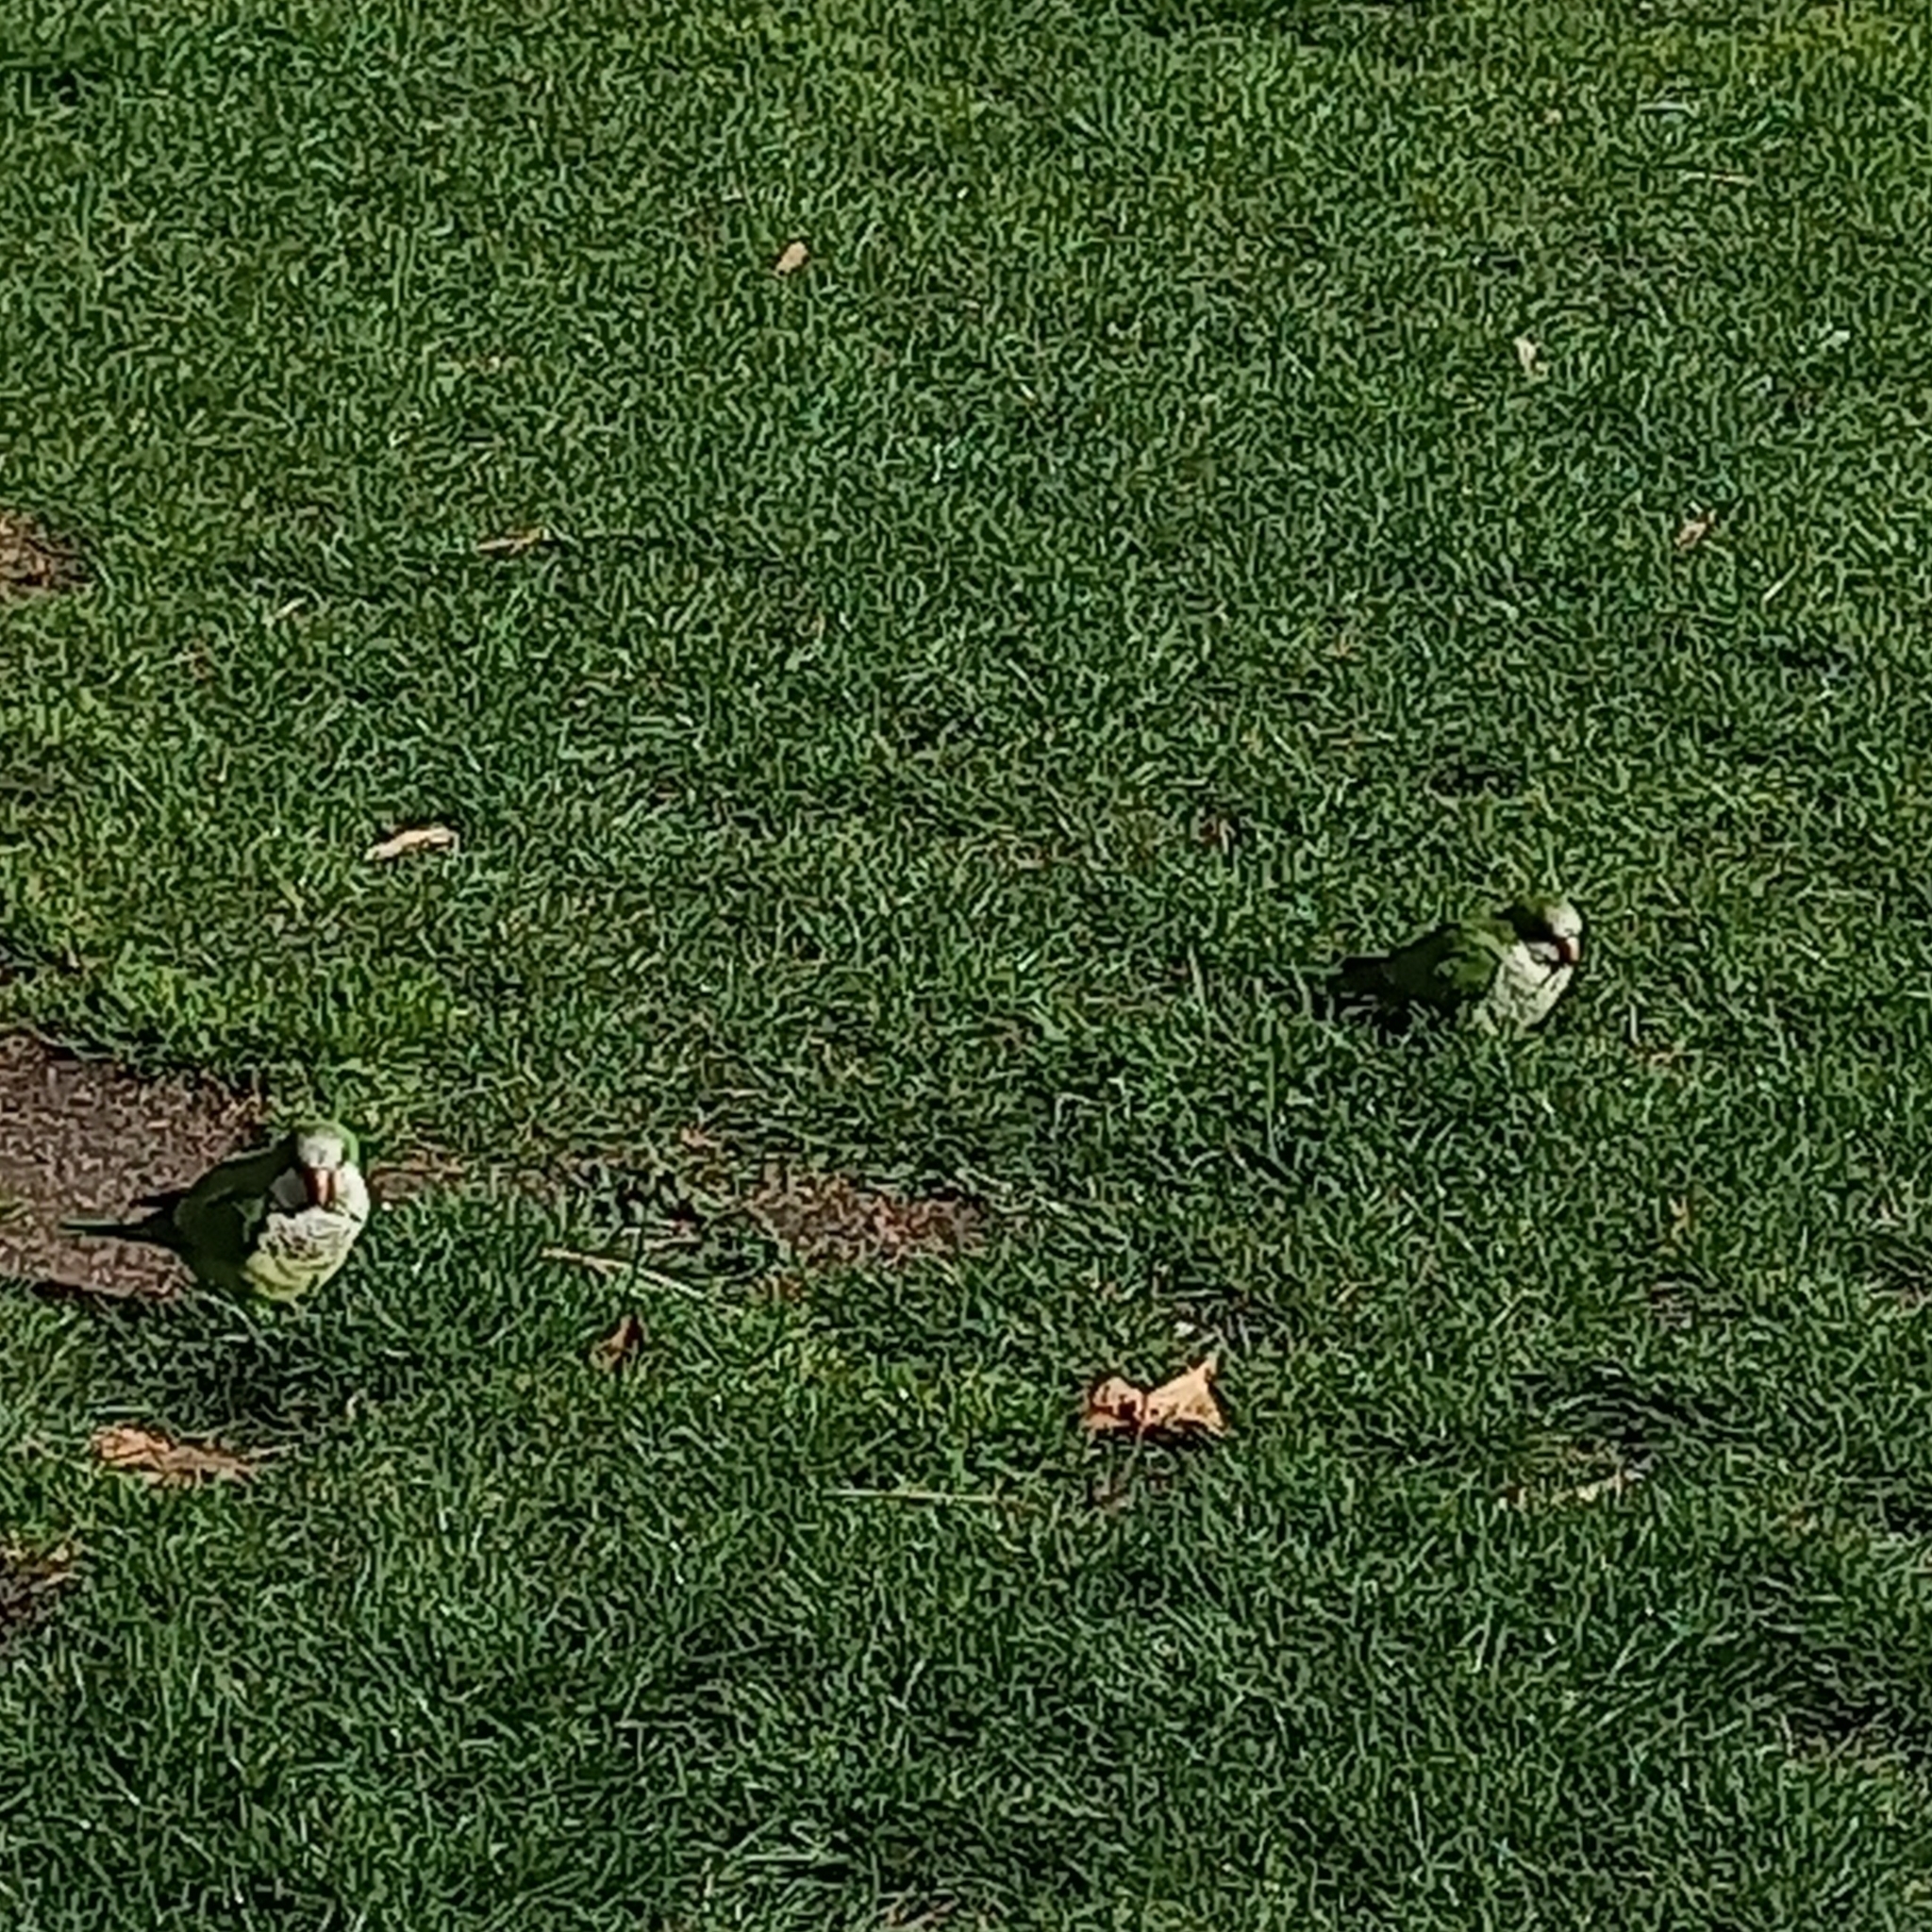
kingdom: Animalia
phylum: Chordata
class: Aves
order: Psittaciformes
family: Psittacidae
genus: Myiopsitta
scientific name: Myiopsitta monachus
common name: Monk parakeet
